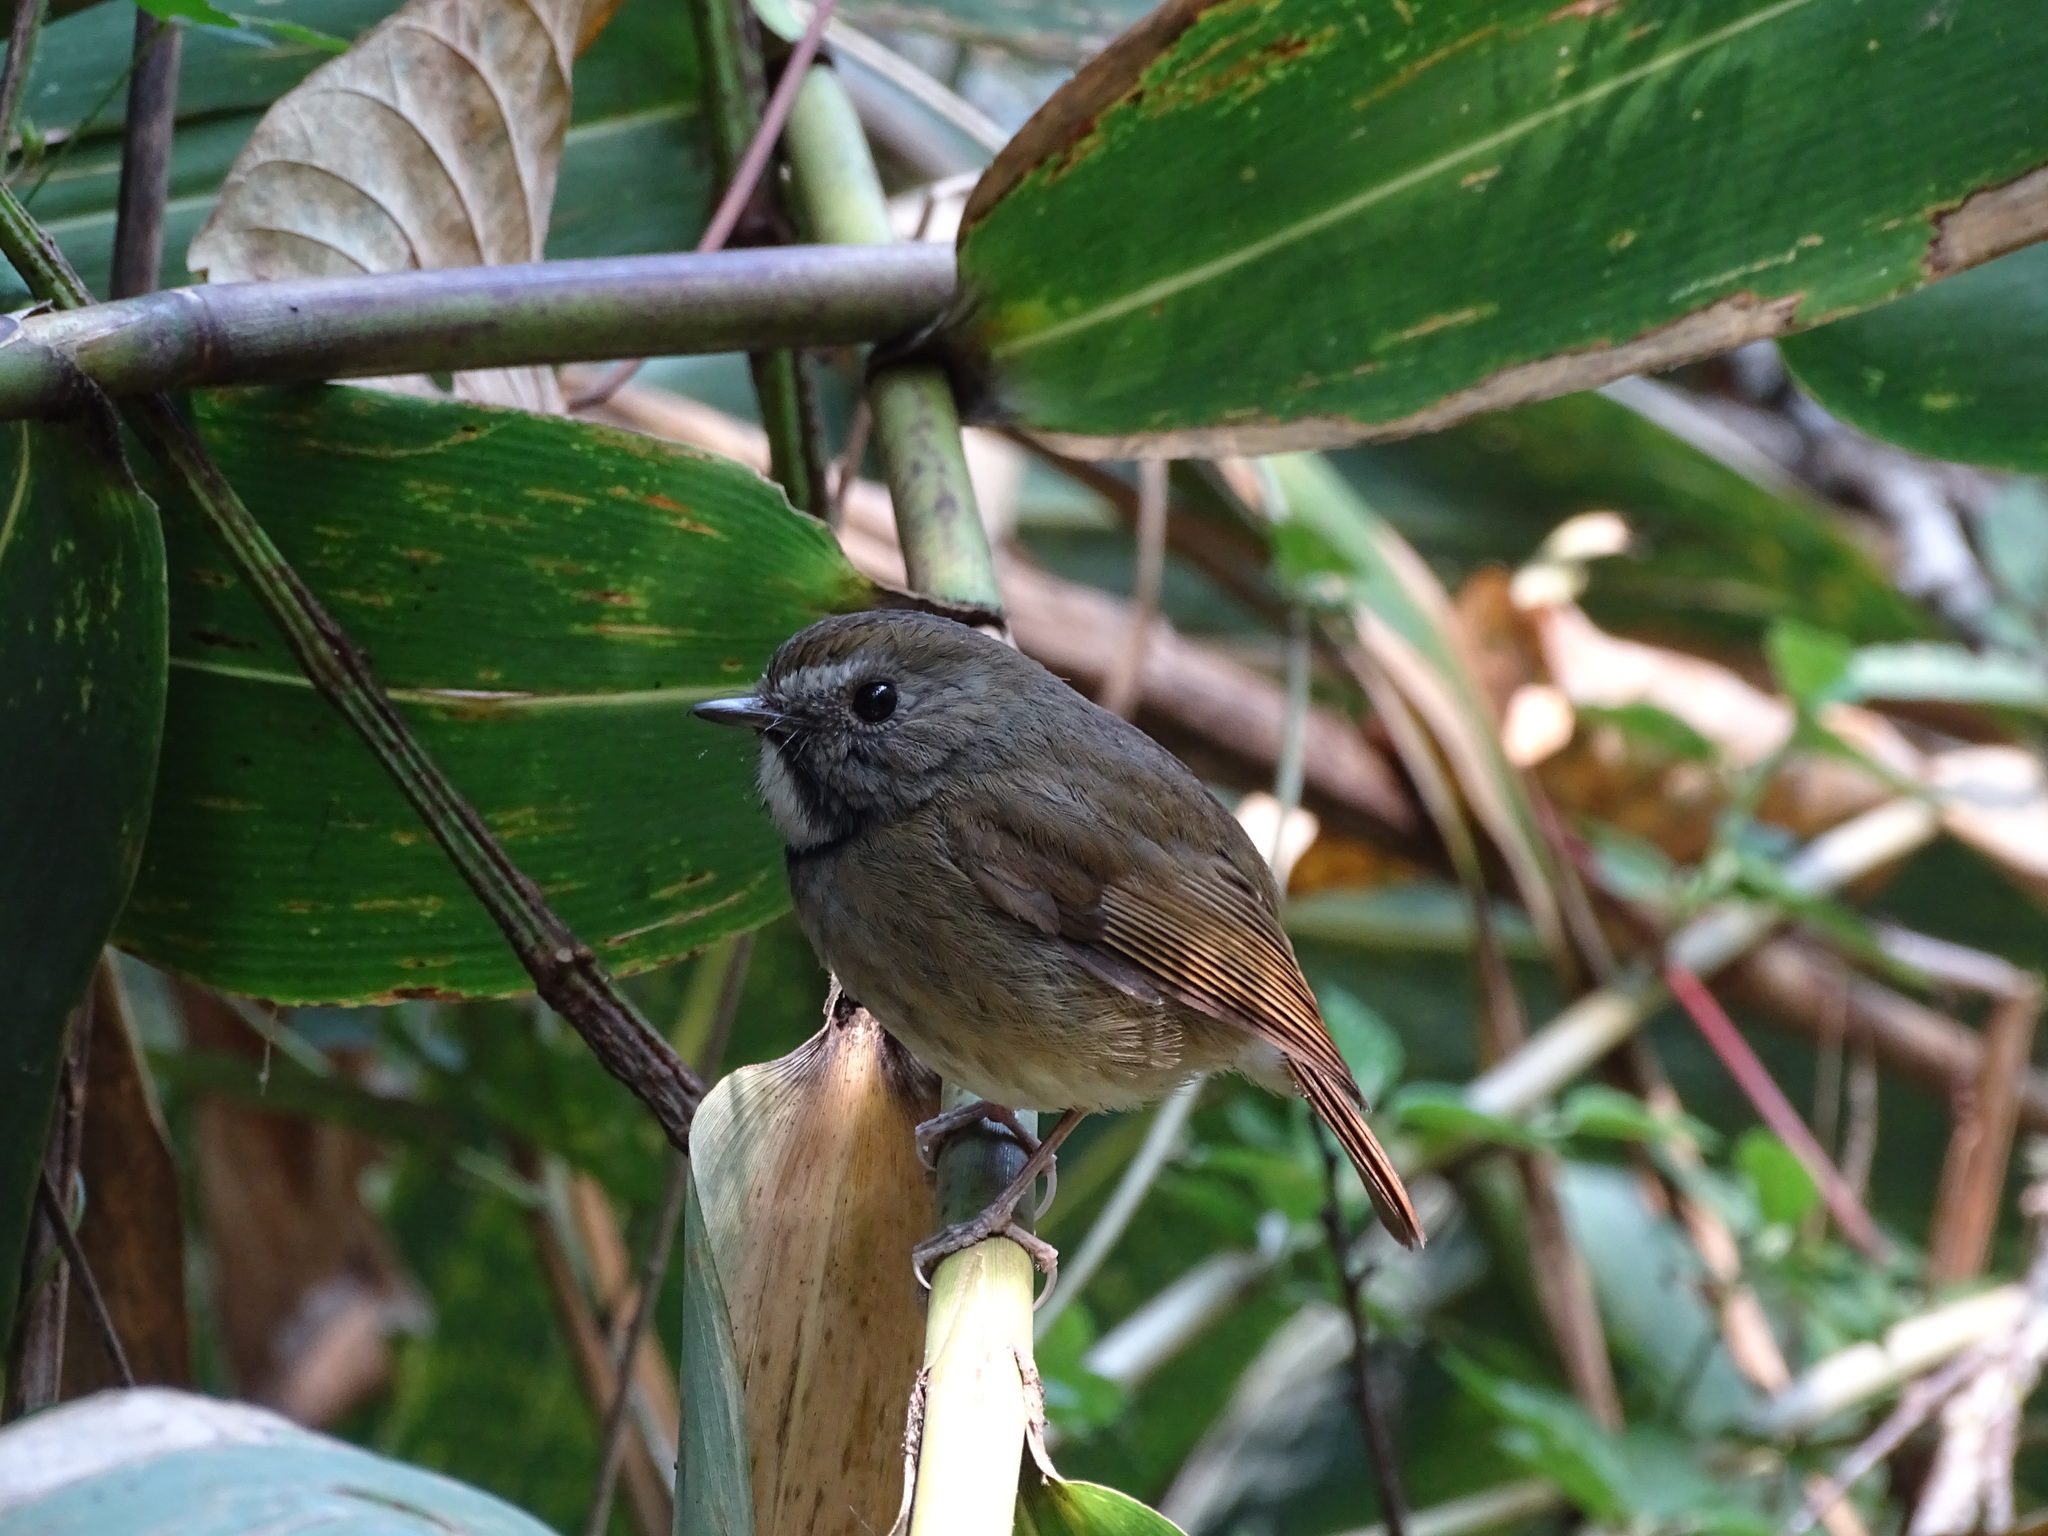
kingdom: Animalia
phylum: Chordata
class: Aves
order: Passeriformes
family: Muscicapidae
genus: Anthipes
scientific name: Anthipes monileger
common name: White-gorgeted flycatcher
